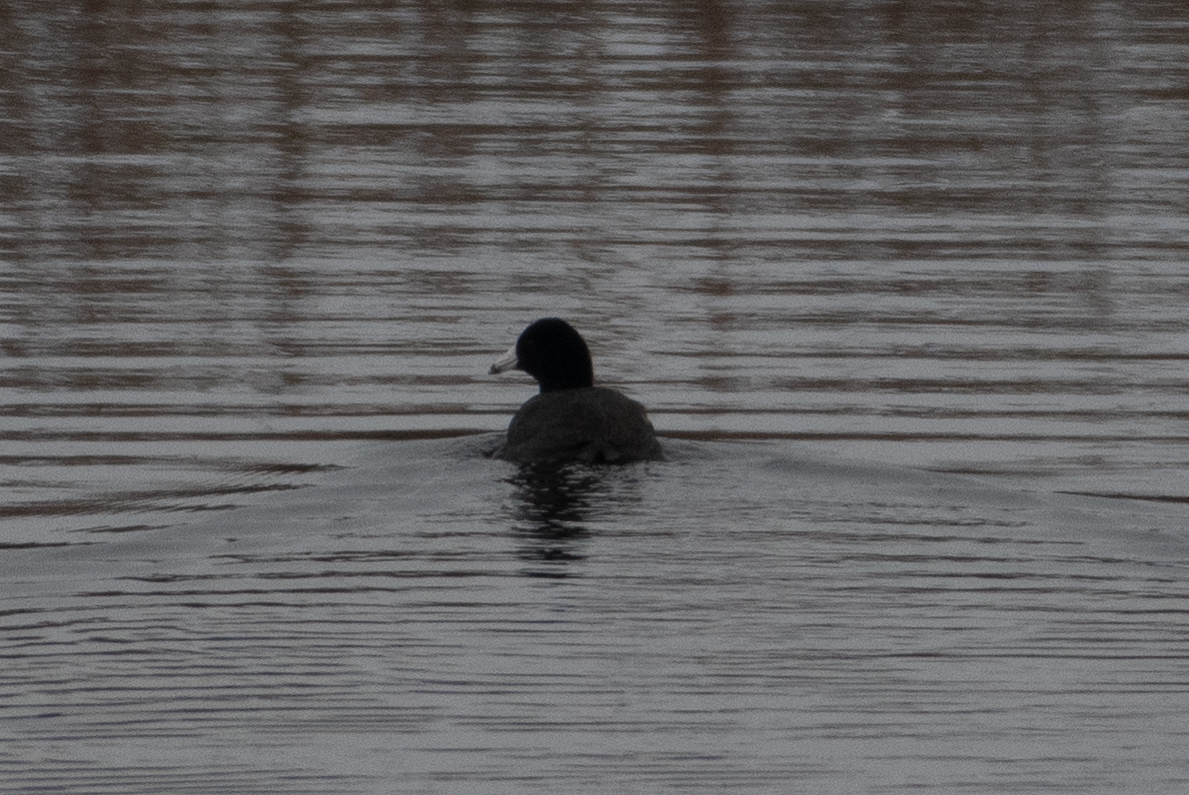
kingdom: Animalia
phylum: Chordata
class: Aves
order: Gruiformes
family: Rallidae
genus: Fulica
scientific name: Fulica americana
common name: American coot
